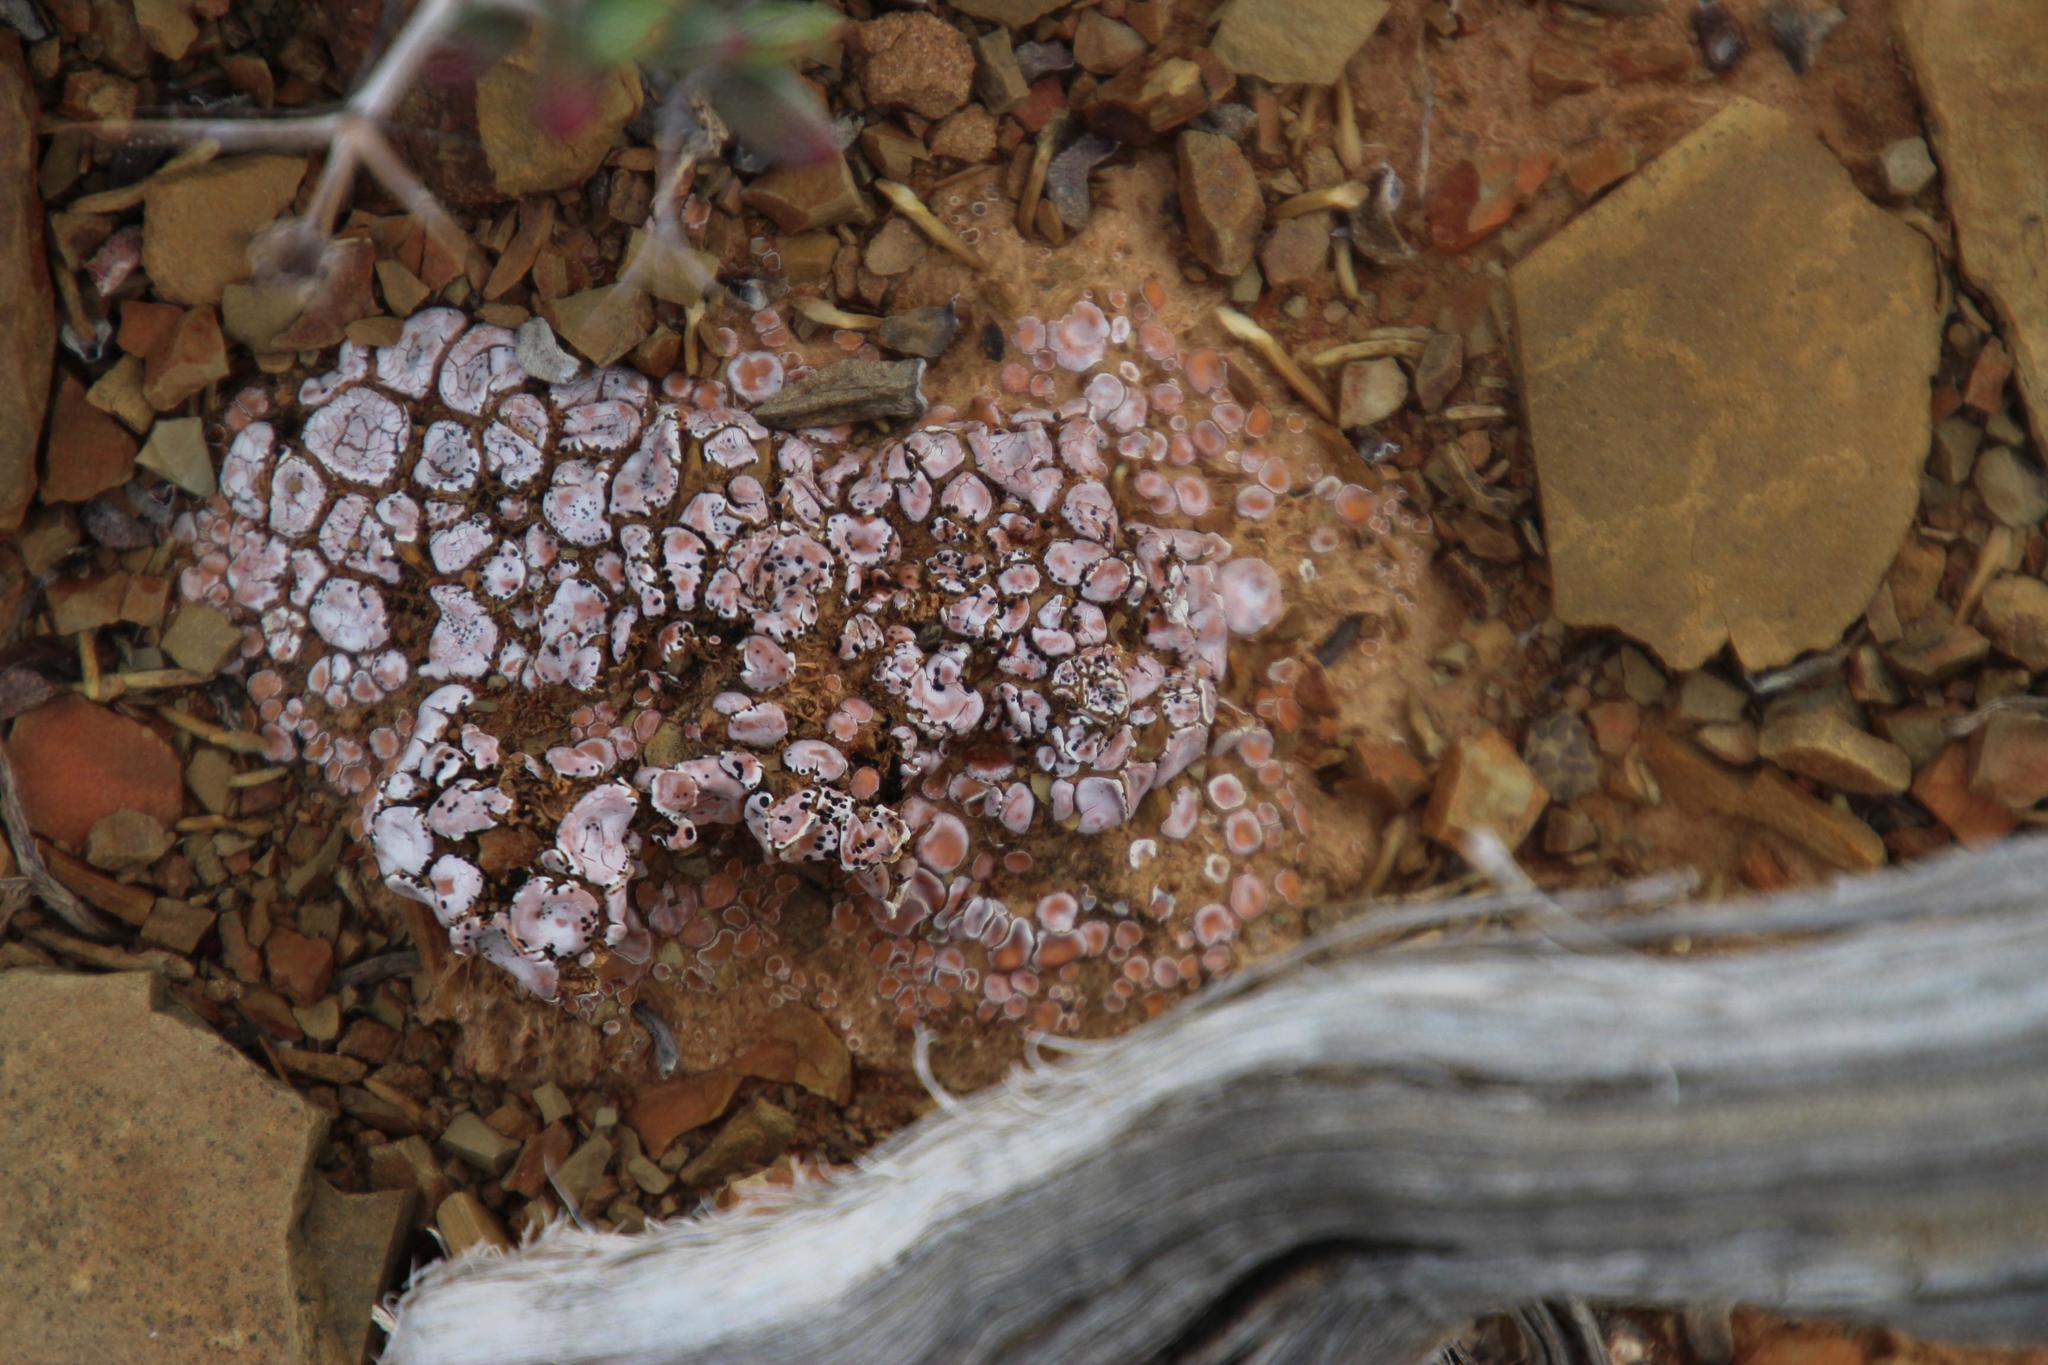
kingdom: Fungi
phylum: Ascomycota
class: Lecanoromycetes
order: Lecanorales
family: Psoraceae
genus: Psora
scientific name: Psora crenata
